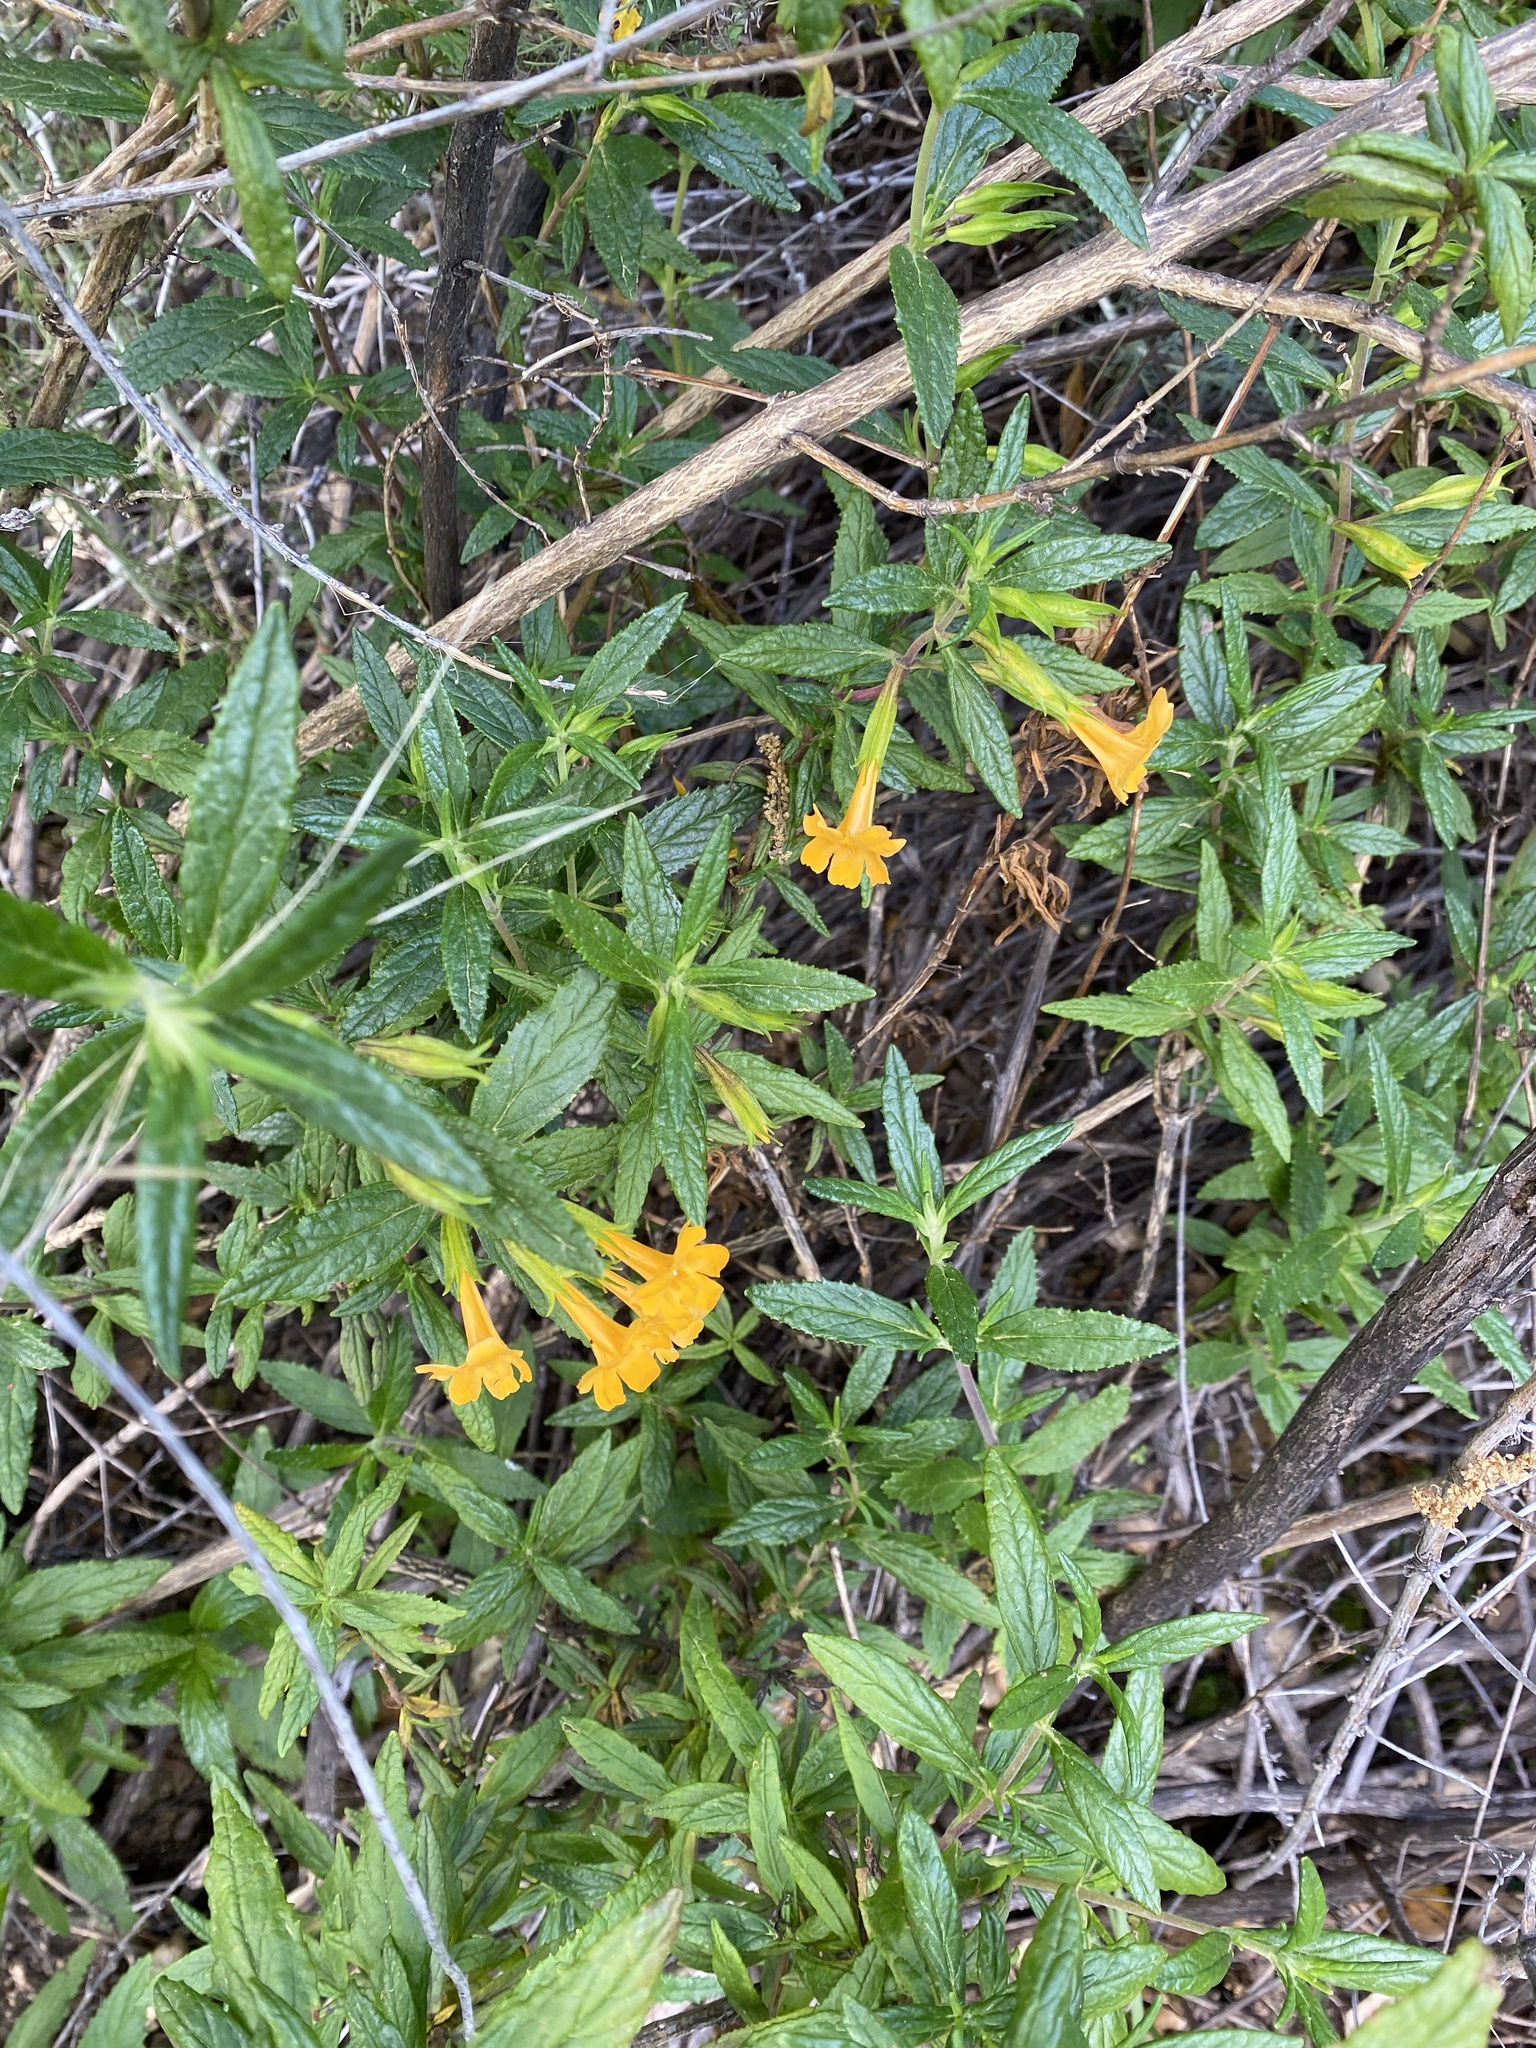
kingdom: Plantae
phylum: Tracheophyta
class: Magnoliopsida
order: Lamiales
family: Phrymaceae
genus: Diplacus
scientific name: Diplacus aurantiacus
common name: Bush monkey-flower
